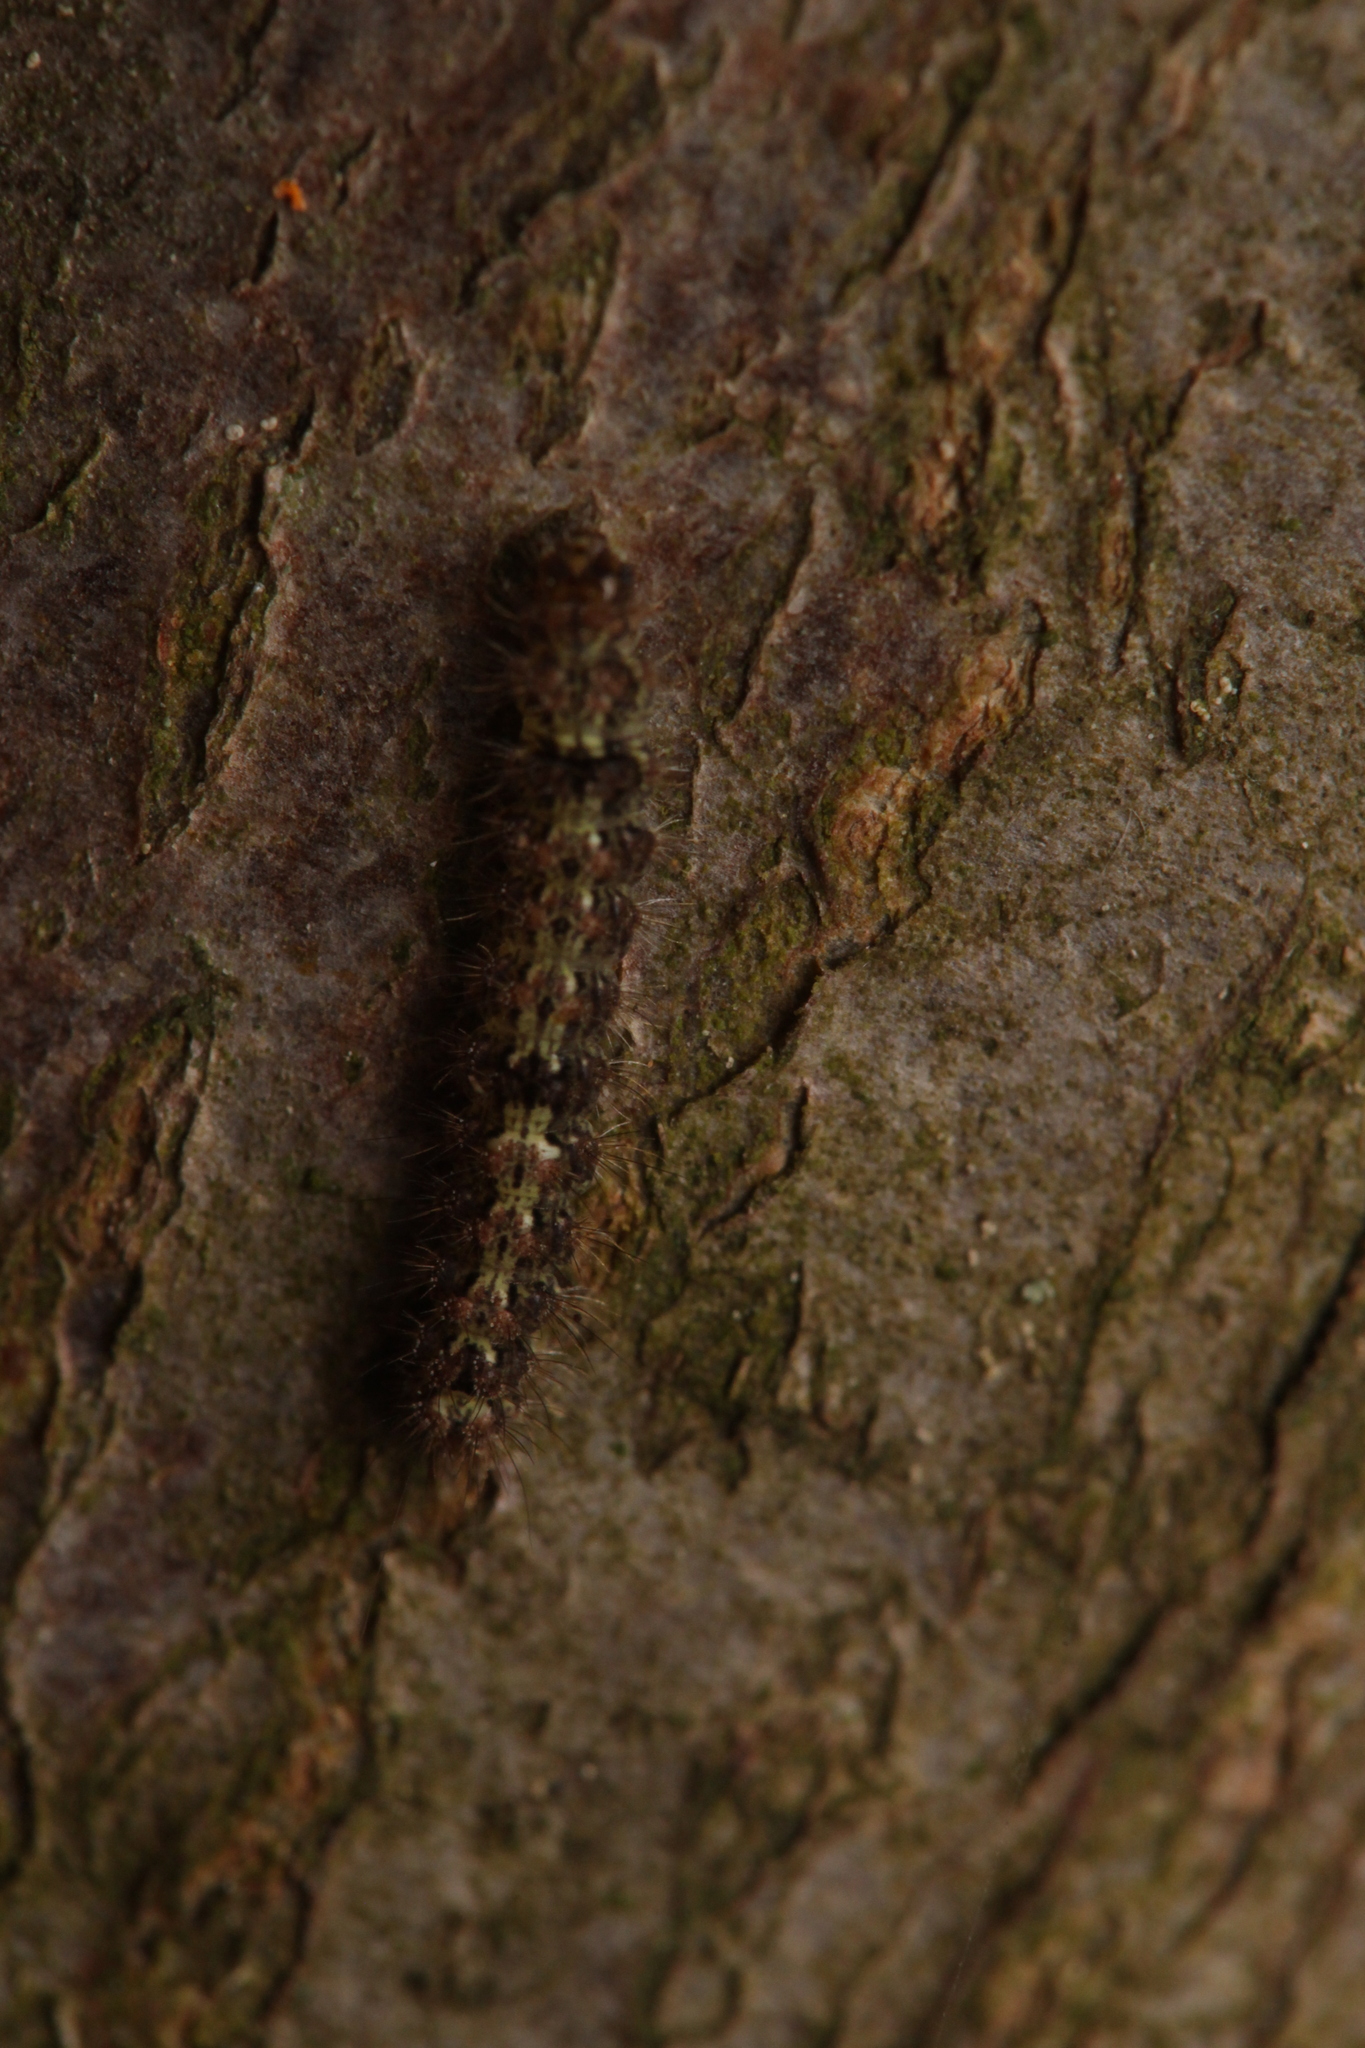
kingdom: Animalia
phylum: Arthropoda
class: Insecta
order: Lepidoptera
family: Erebidae
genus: Katha
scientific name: Katha depressa
